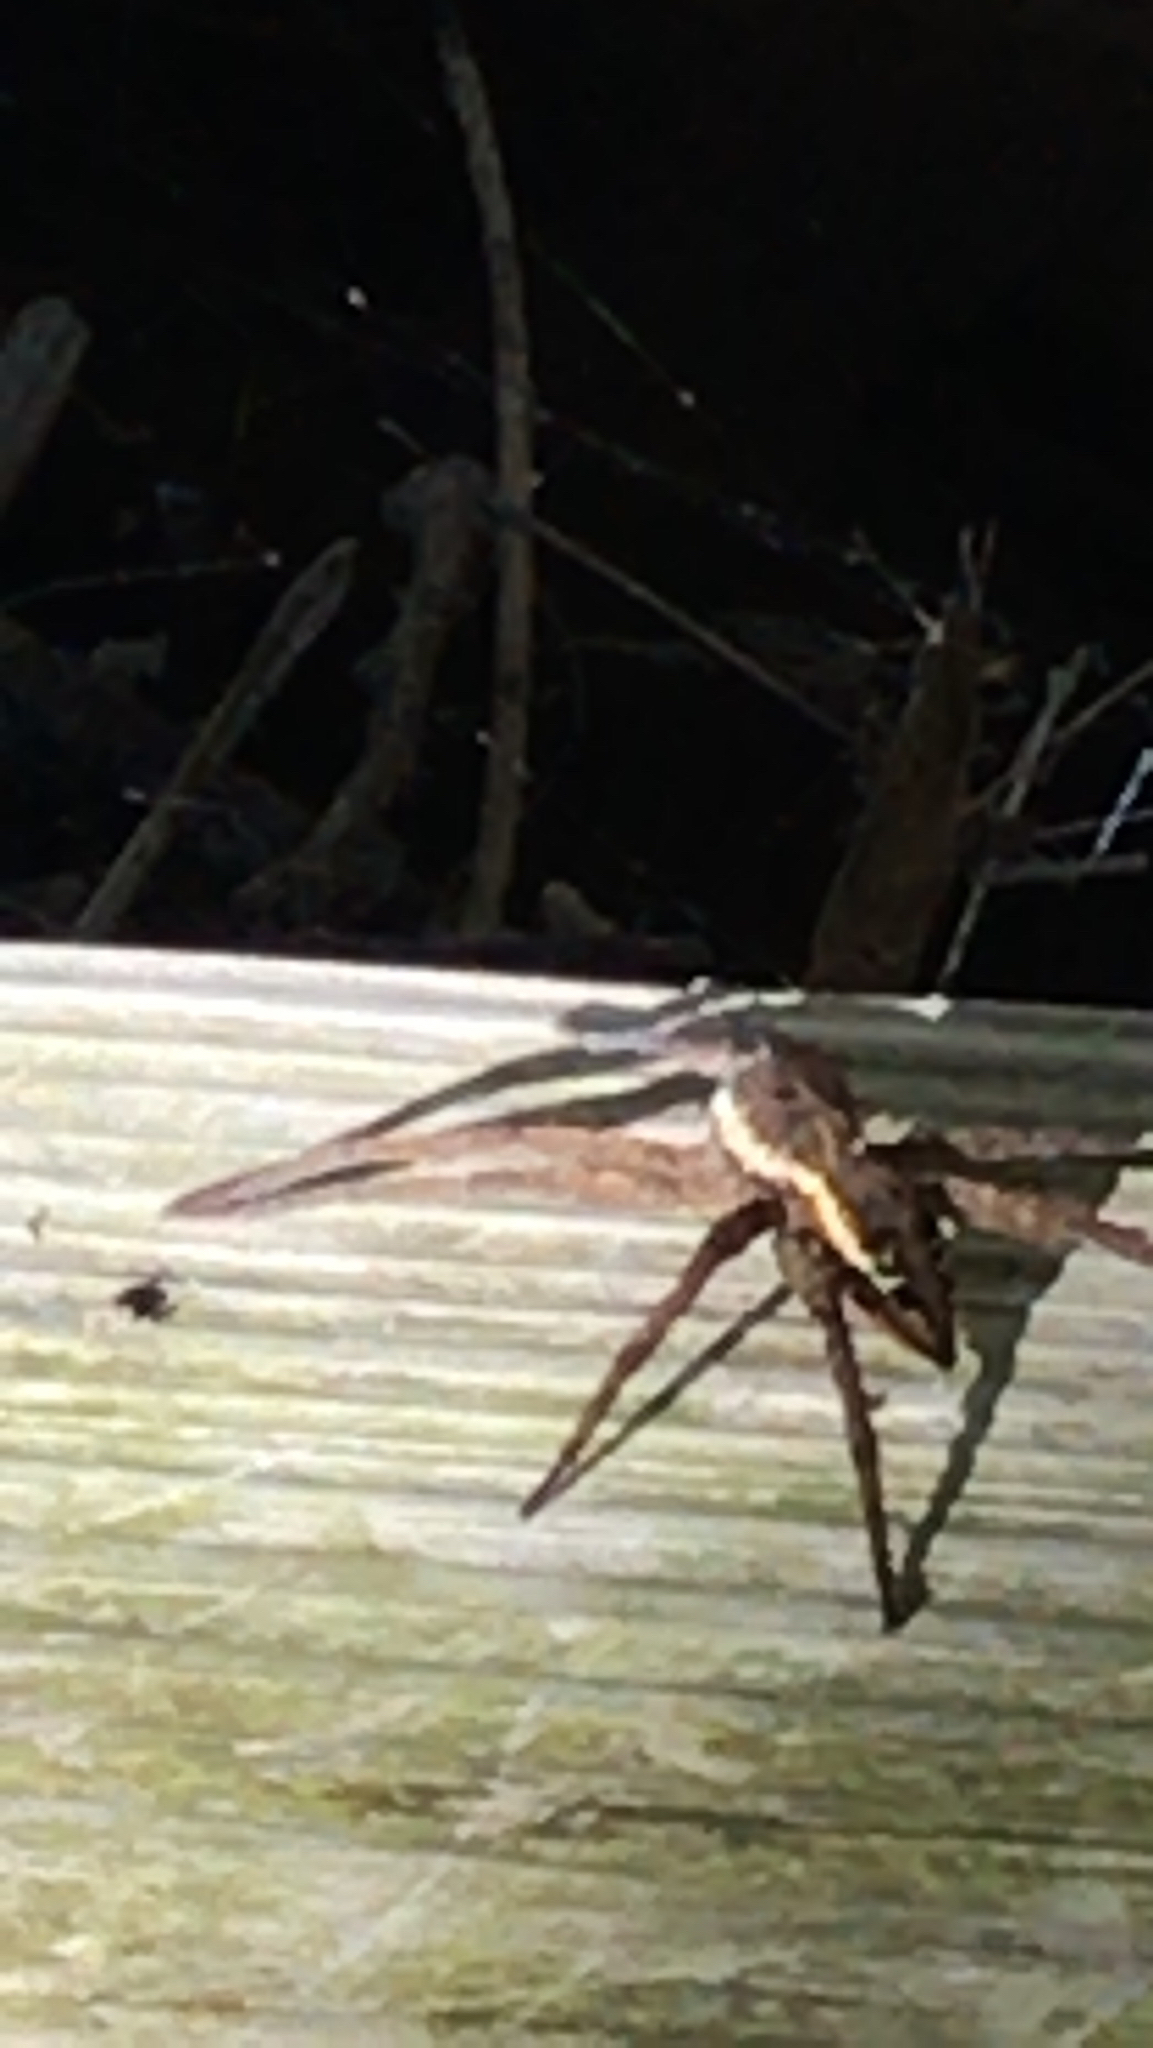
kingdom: Animalia
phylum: Arthropoda
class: Arachnida
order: Araneae
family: Pisauridae
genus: Dolomedes
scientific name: Dolomedes vittatus
